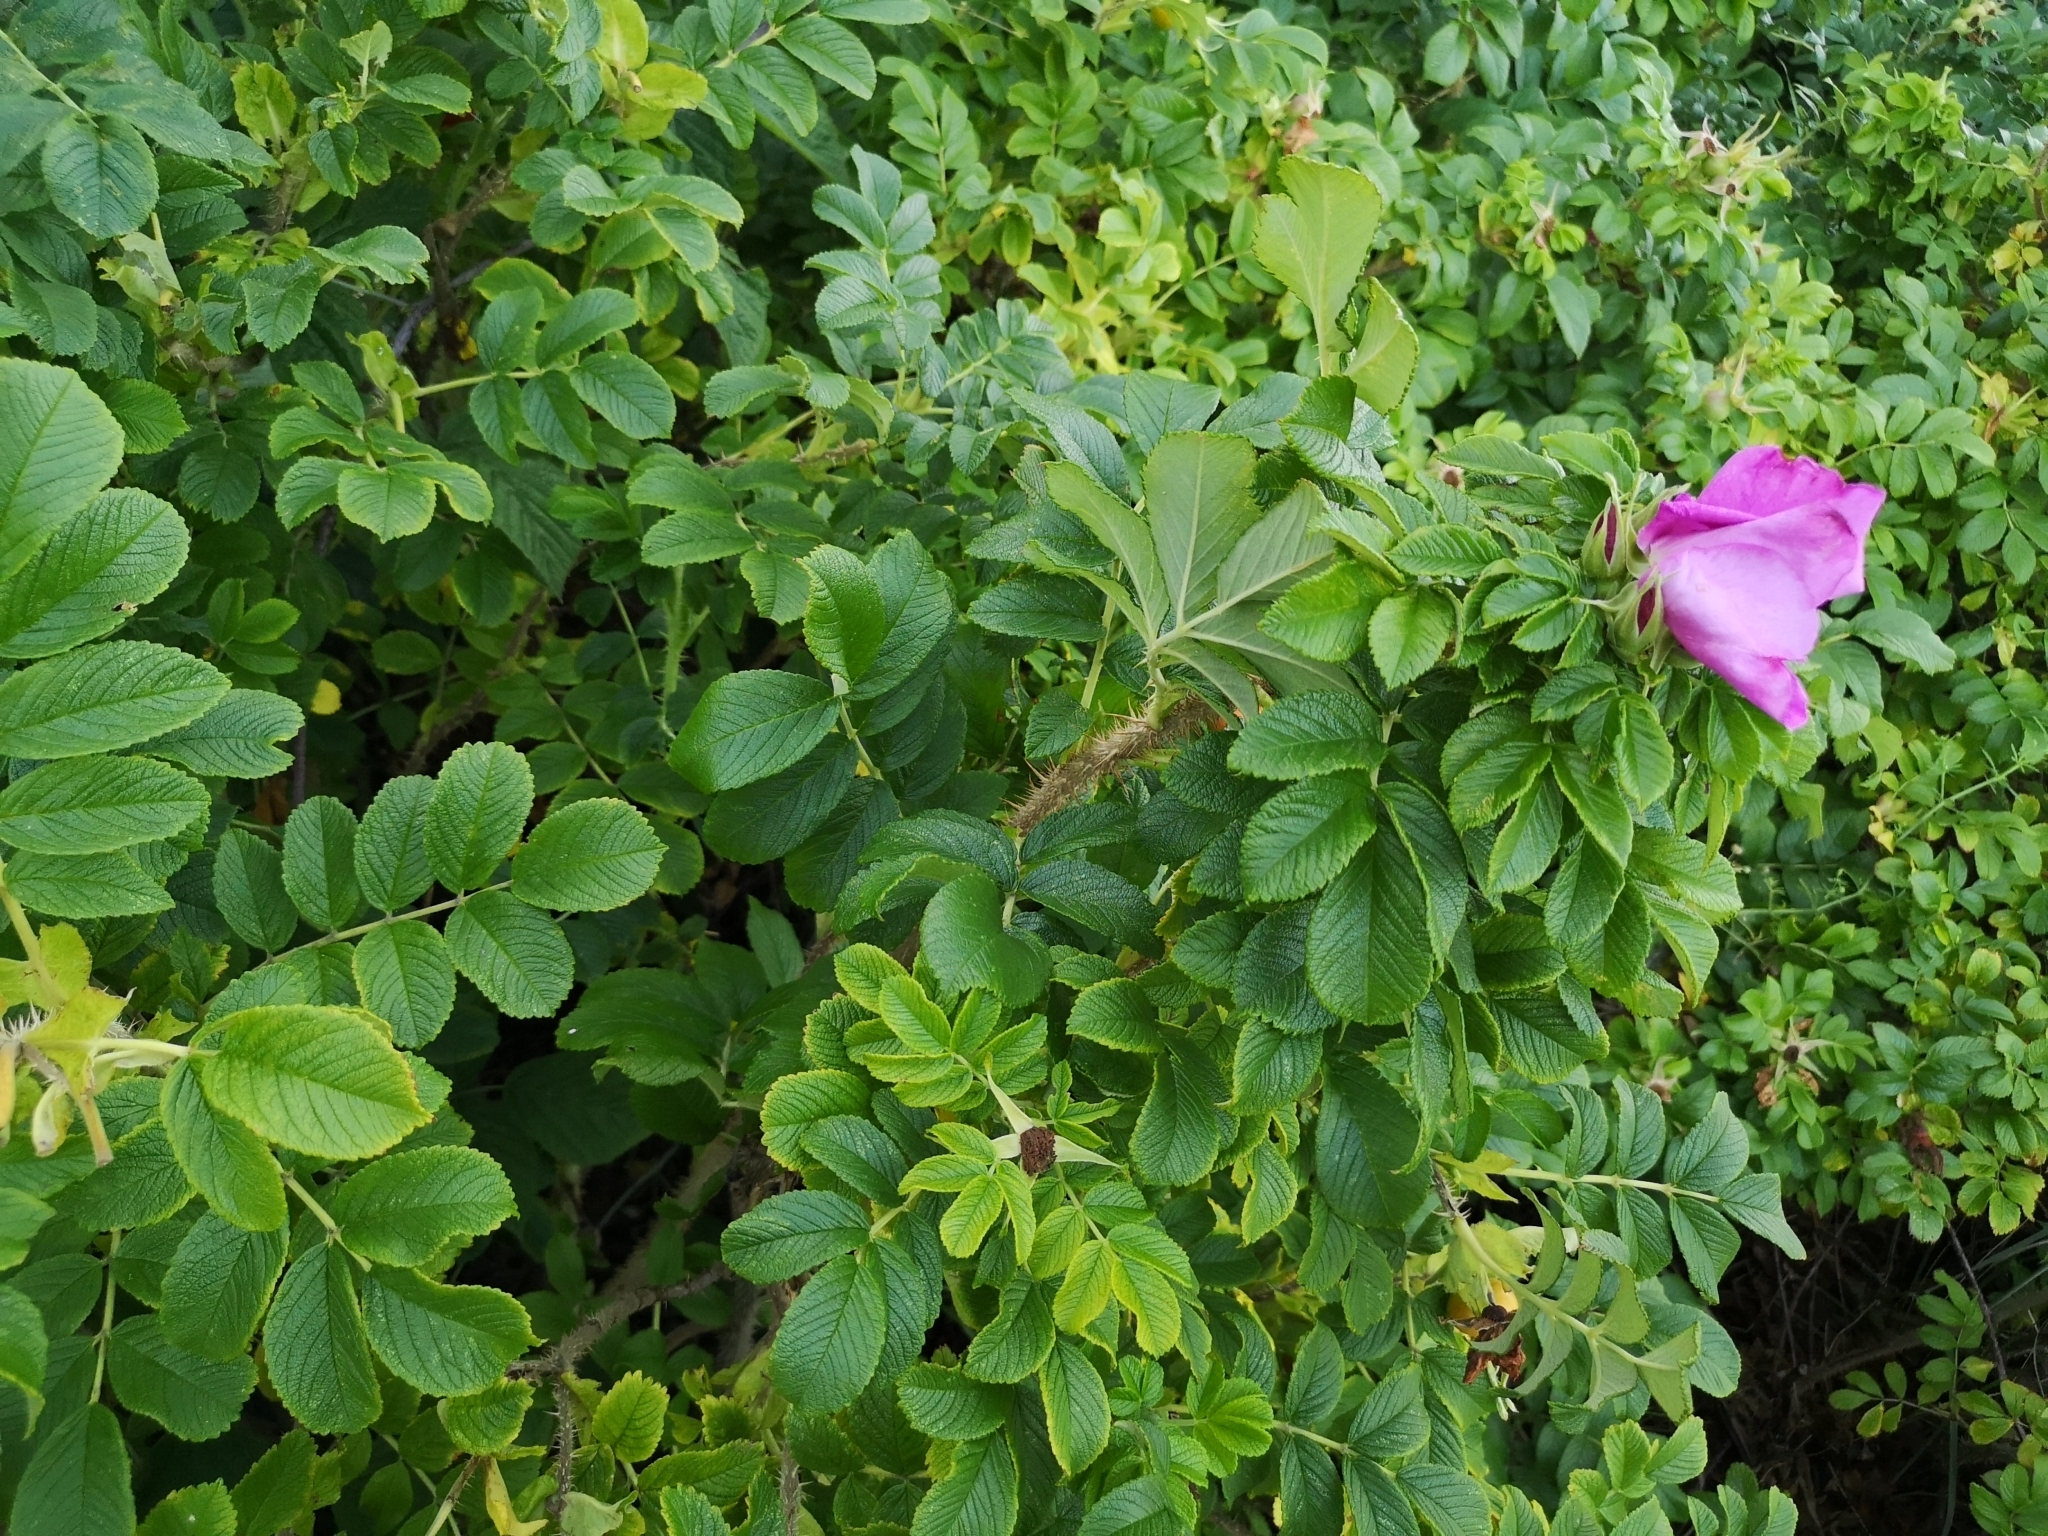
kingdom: Plantae
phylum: Tracheophyta
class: Magnoliopsida
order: Rosales
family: Rosaceae
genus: Rosa
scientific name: Rosa rugosa
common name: Japanese rose
